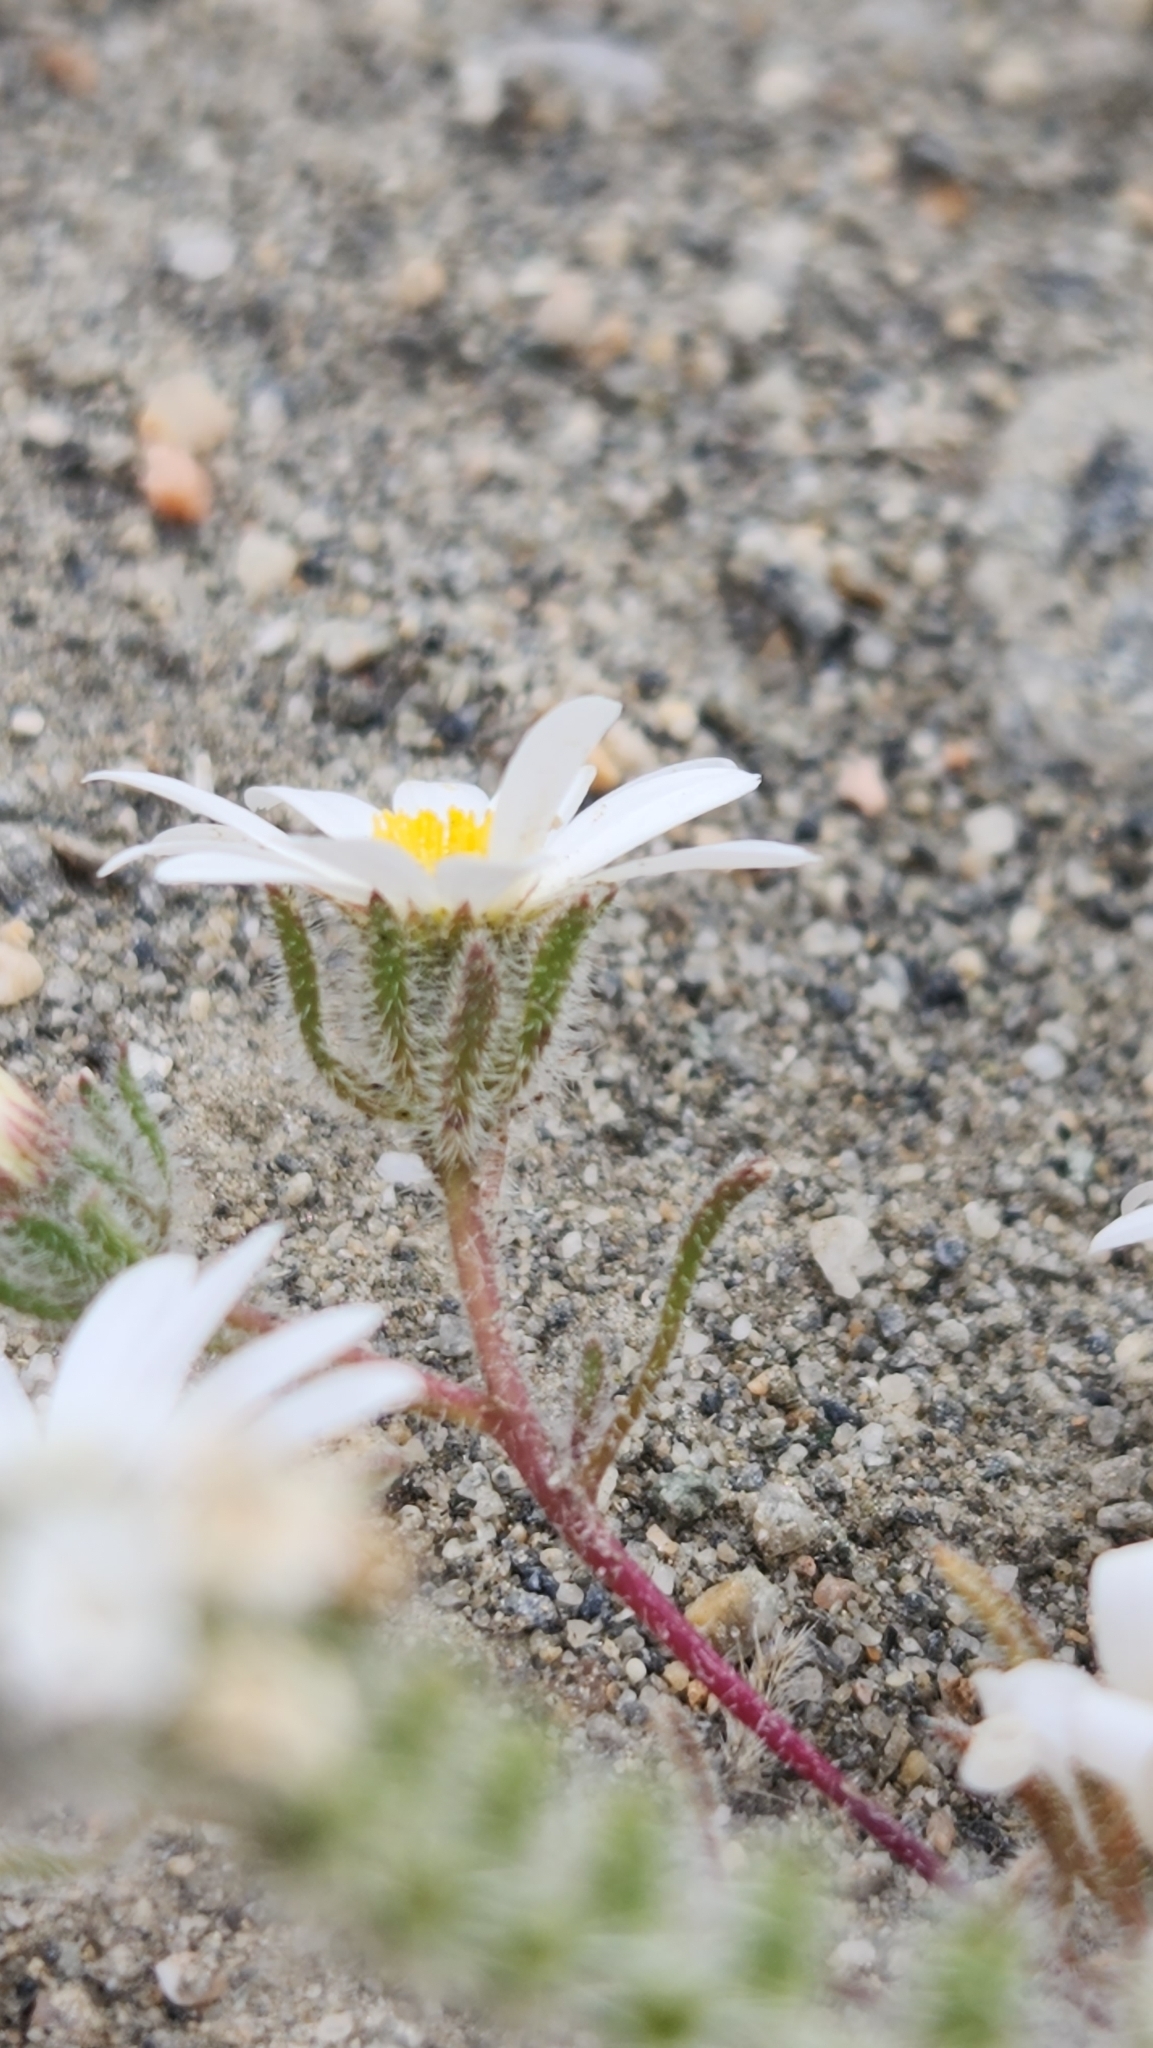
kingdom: Plantae
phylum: Tracheophyta
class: Magnoliopsida
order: Asterales
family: Asteraceae
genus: Monoptilon
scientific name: Monoptilon bellioides
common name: Bristly desertstar
